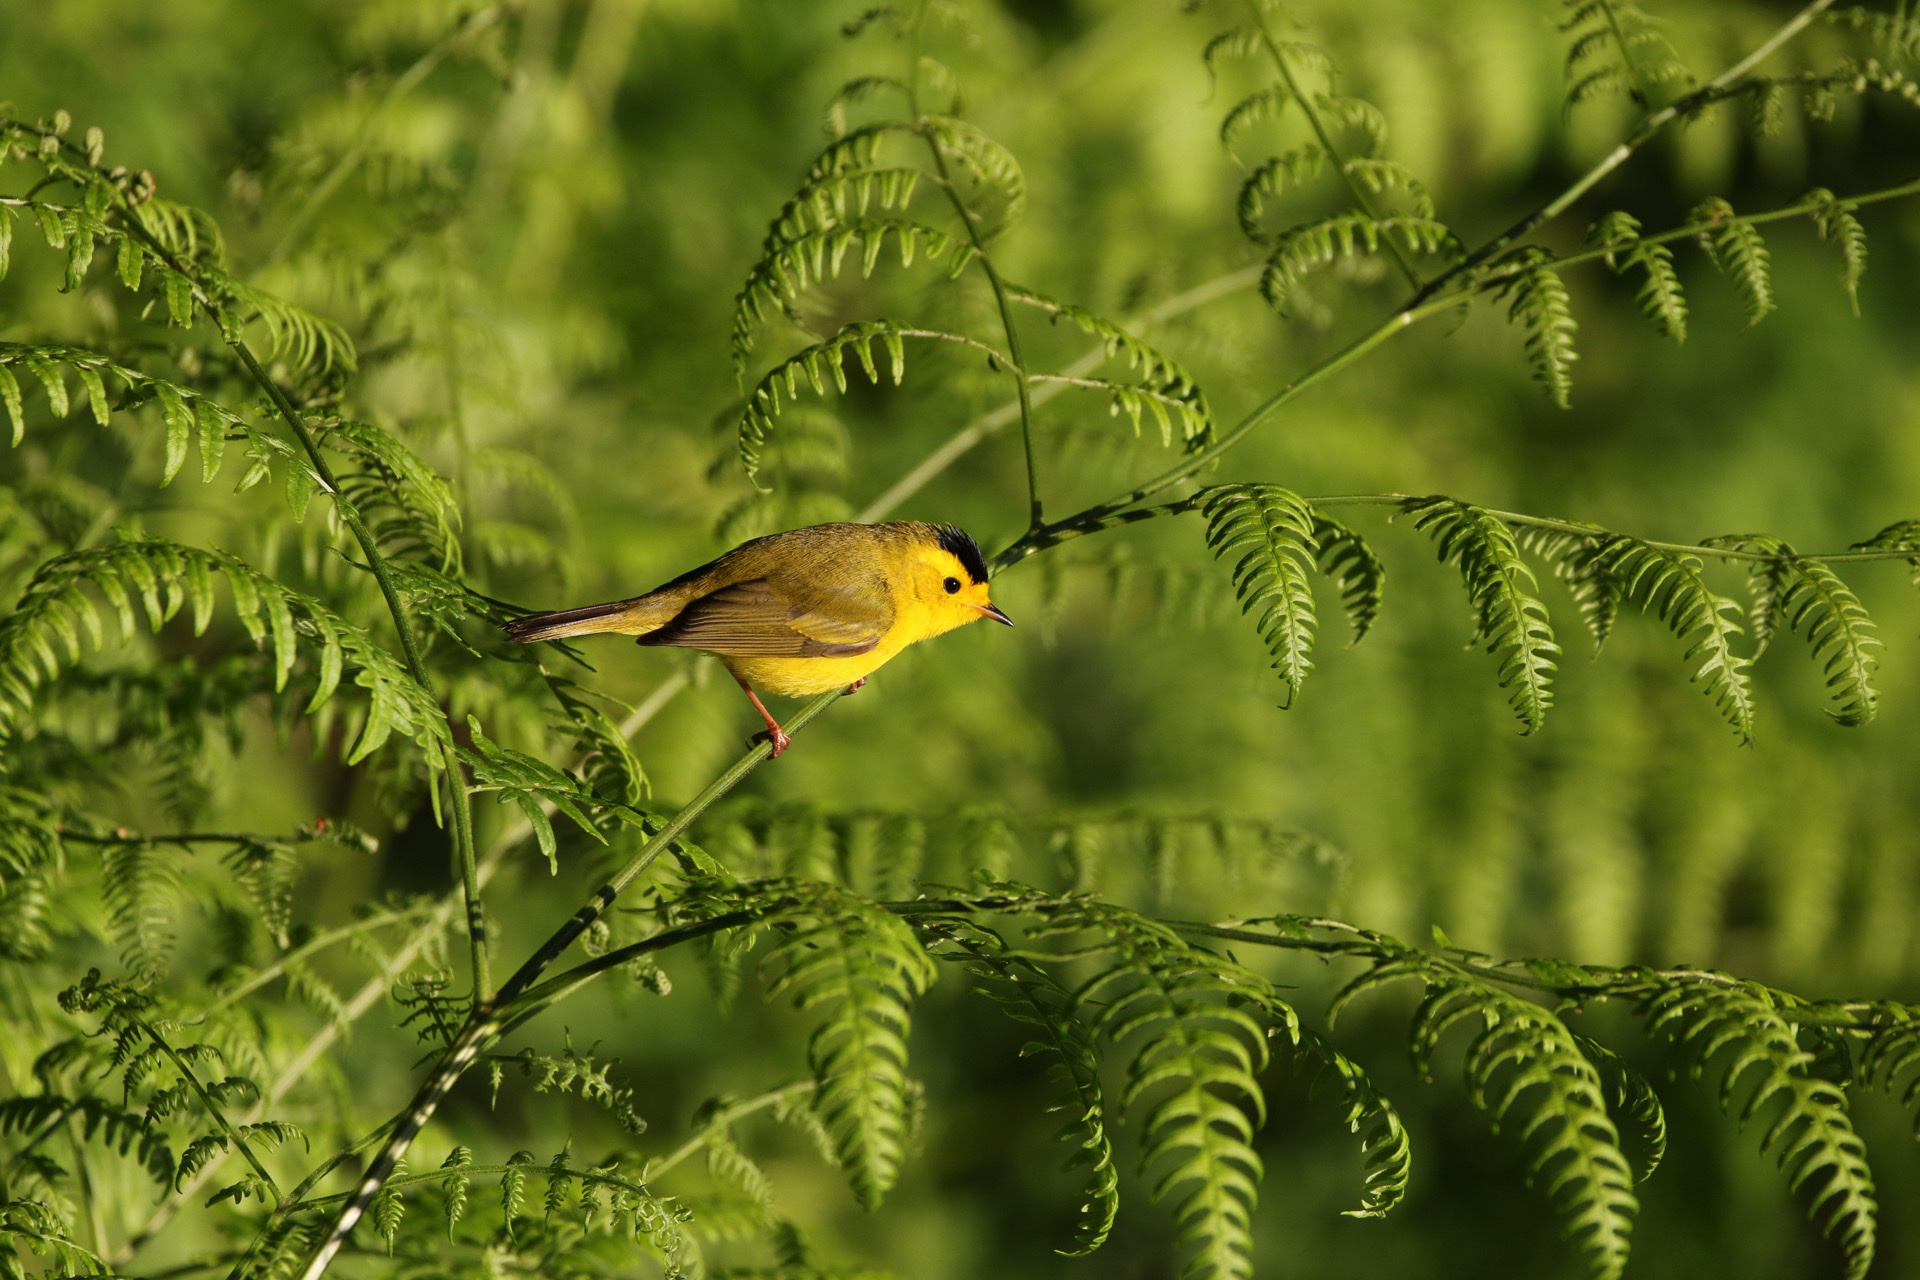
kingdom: Animalia
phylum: Chordata
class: Aves
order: Passeriformes
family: Parulidae
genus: Cardellina
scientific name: Cardellina pusilla
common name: Wilson's warbler
